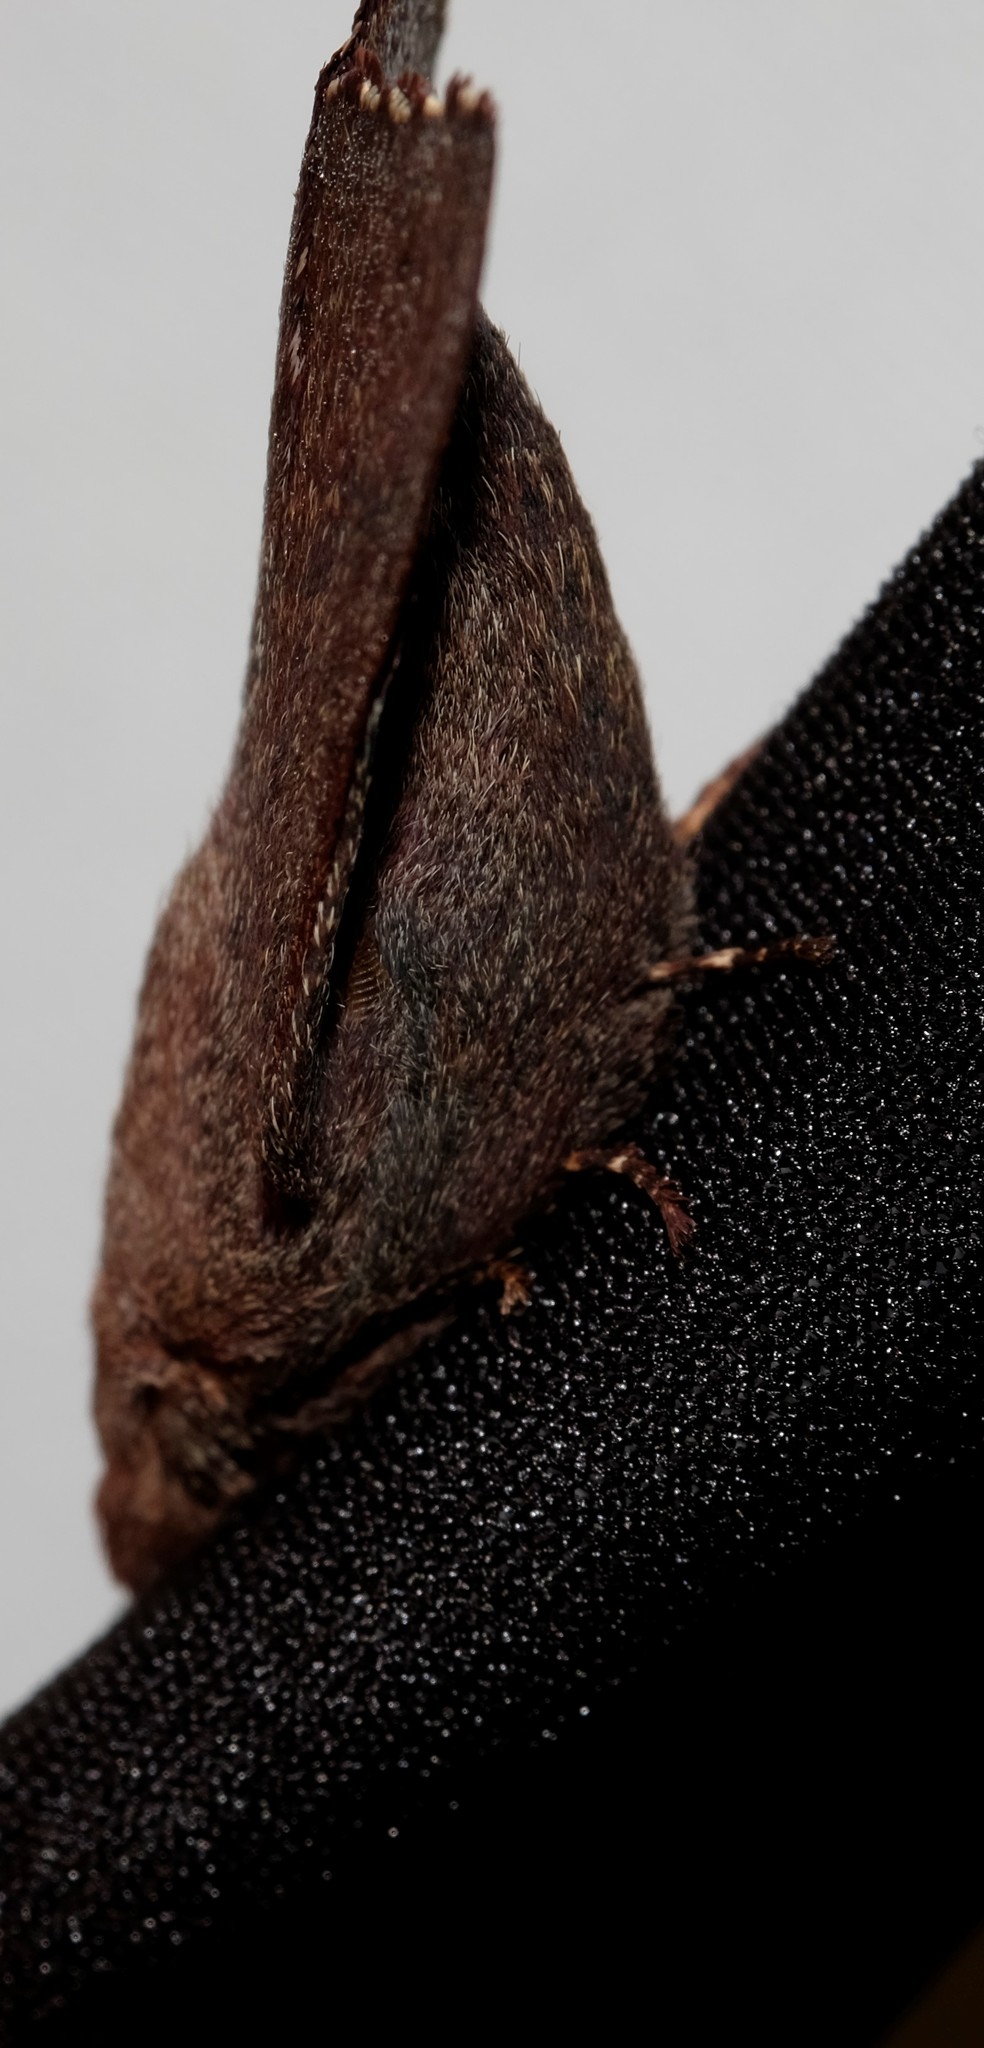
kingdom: Animalia
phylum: Arthropoda
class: Insecta
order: Lepidoptera
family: Lasiocampidae
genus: Pararguda
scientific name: Pararguda rufescens
